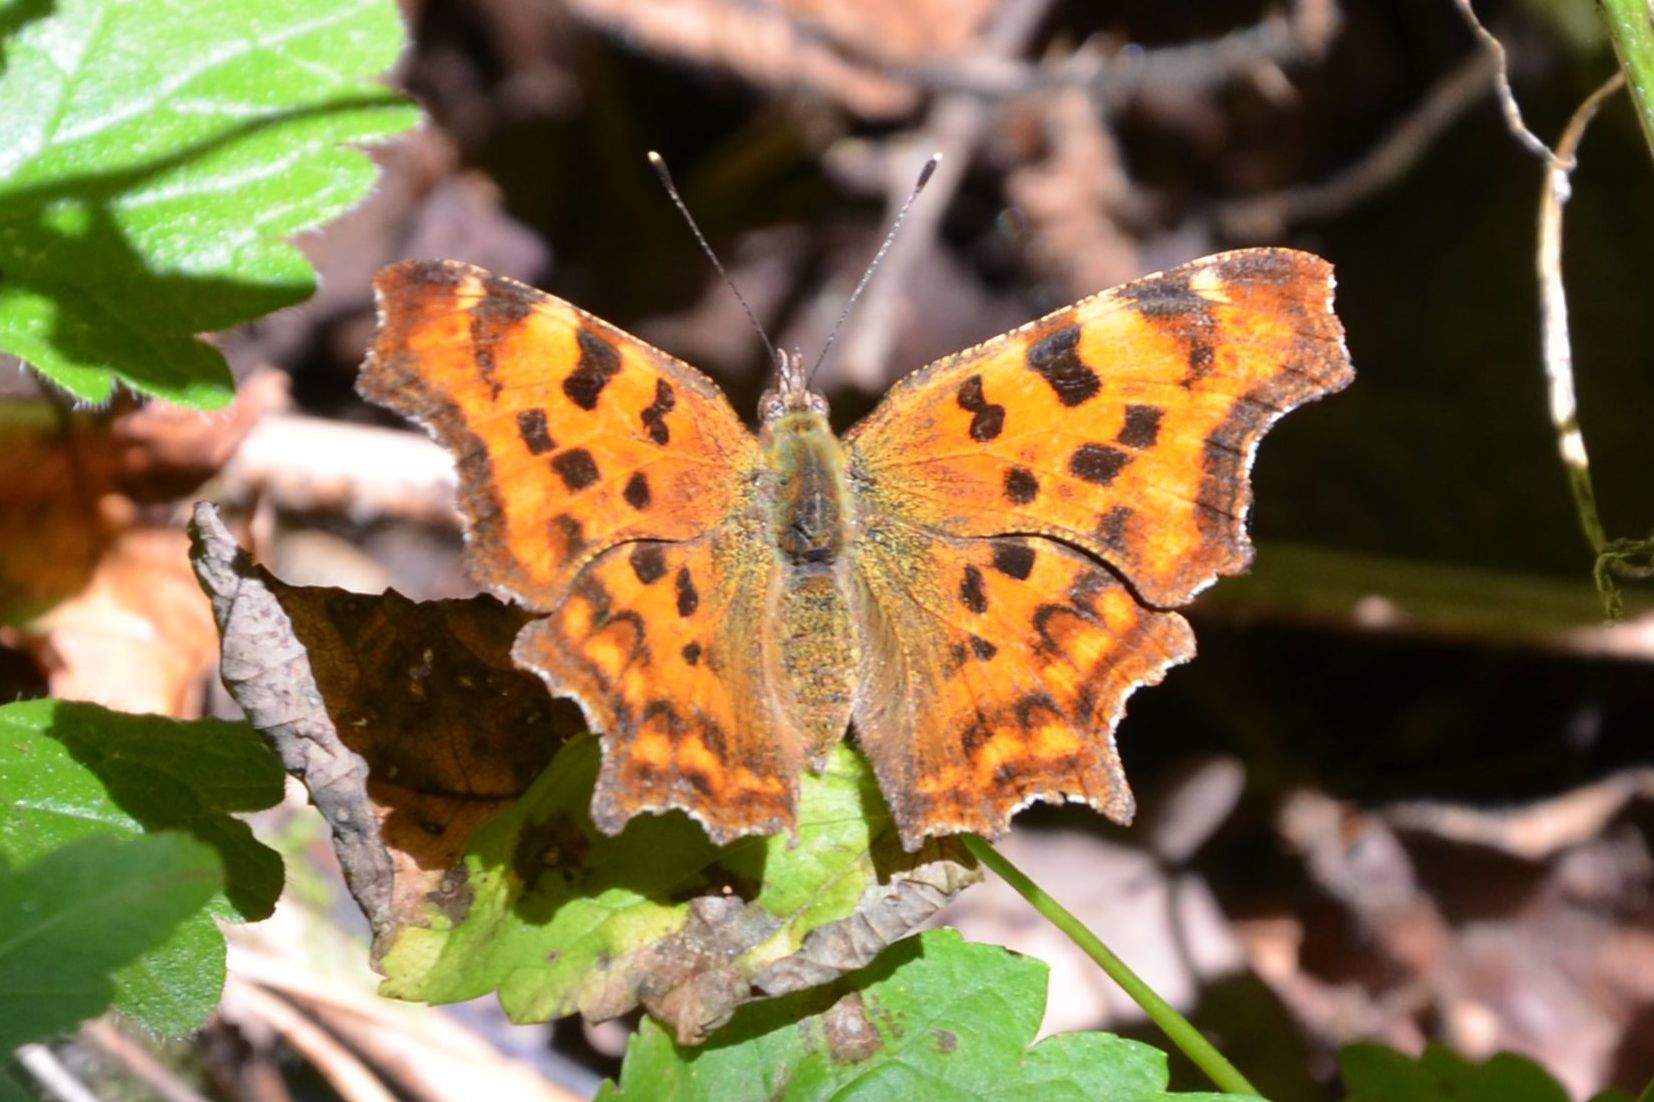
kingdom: Animalia
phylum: Arthropoda
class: Insecta
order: Lepidoptera
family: Nymphalidae
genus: Polygonia
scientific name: Polygonia c-album
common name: Comma
